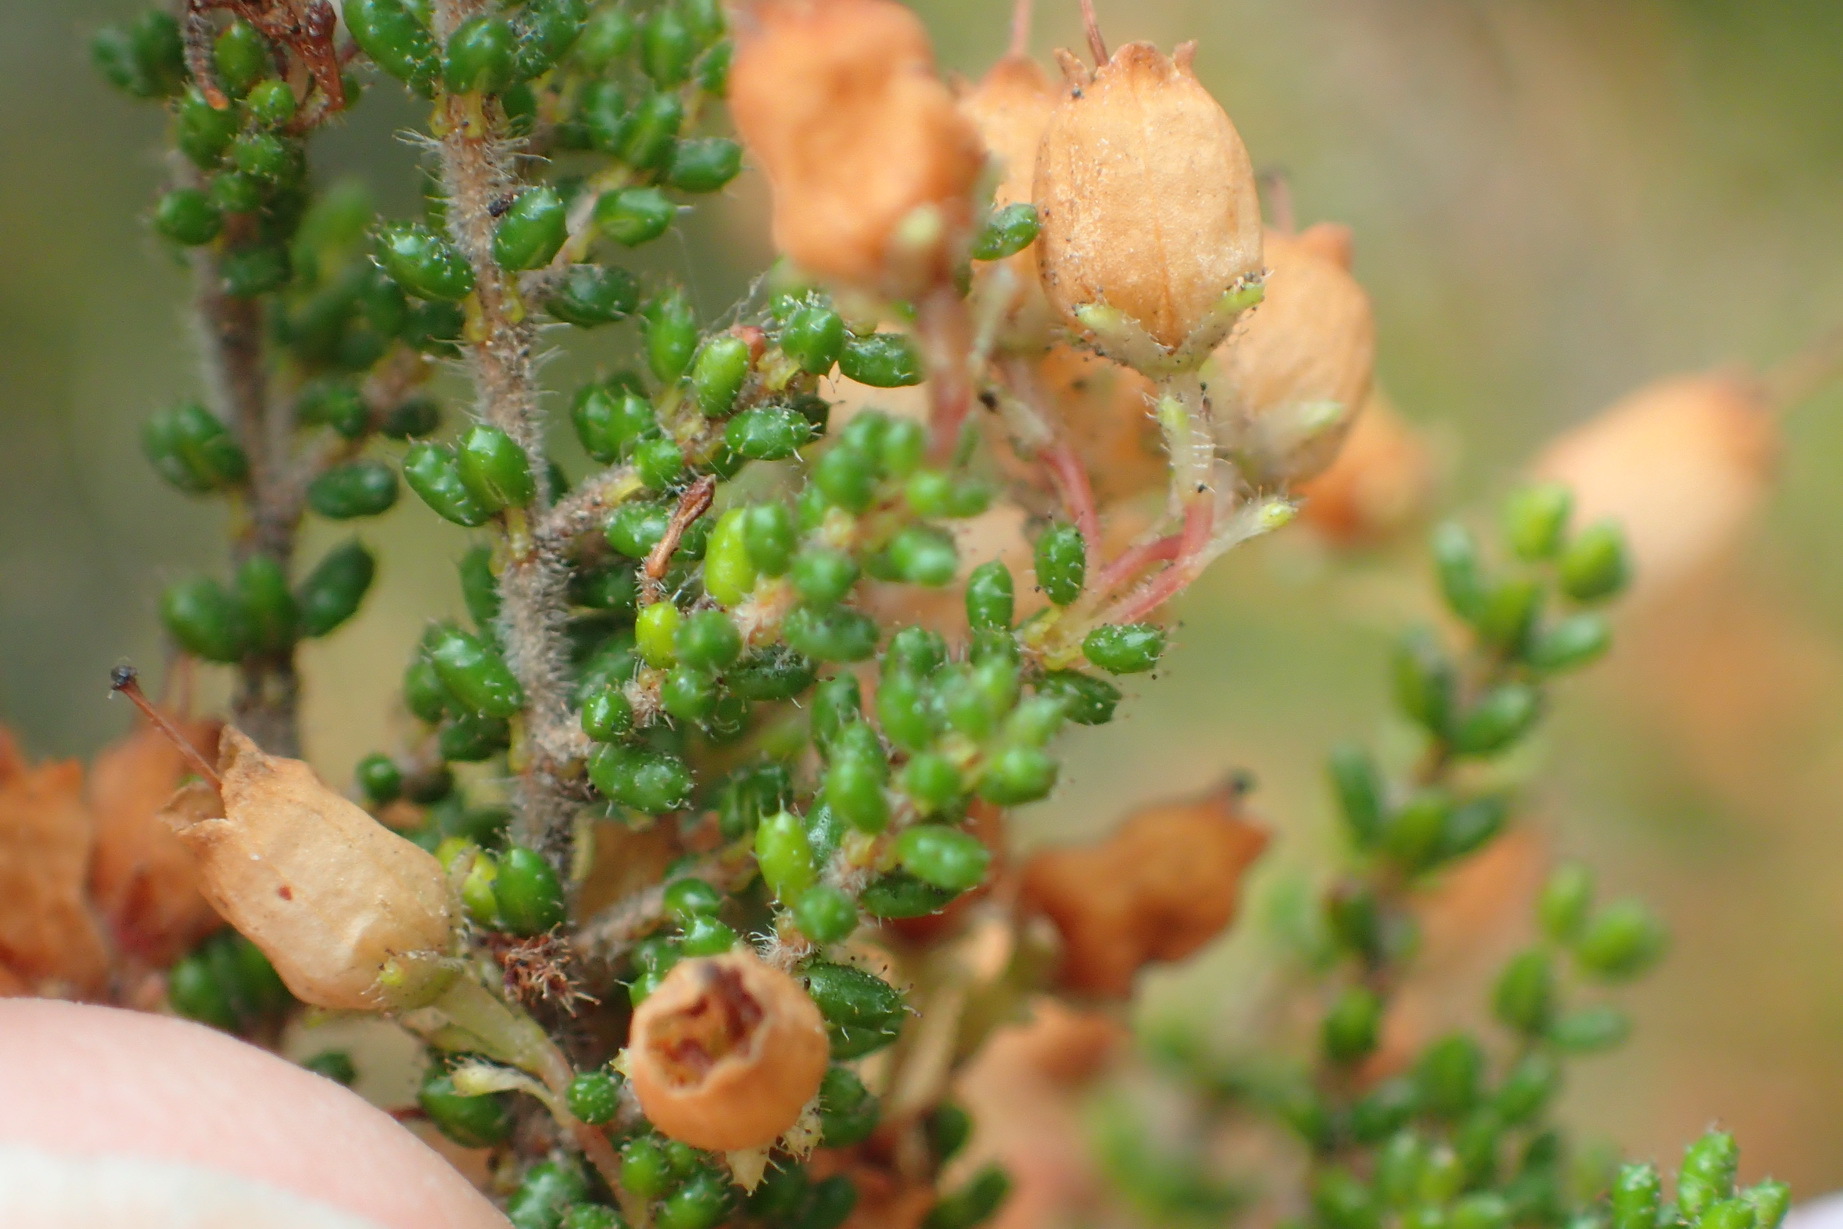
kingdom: Plantae
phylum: Tracheophyta
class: Magnoliopsida
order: Ericales
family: Ericaceae
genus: Erica
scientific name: Erica scabriuscula
